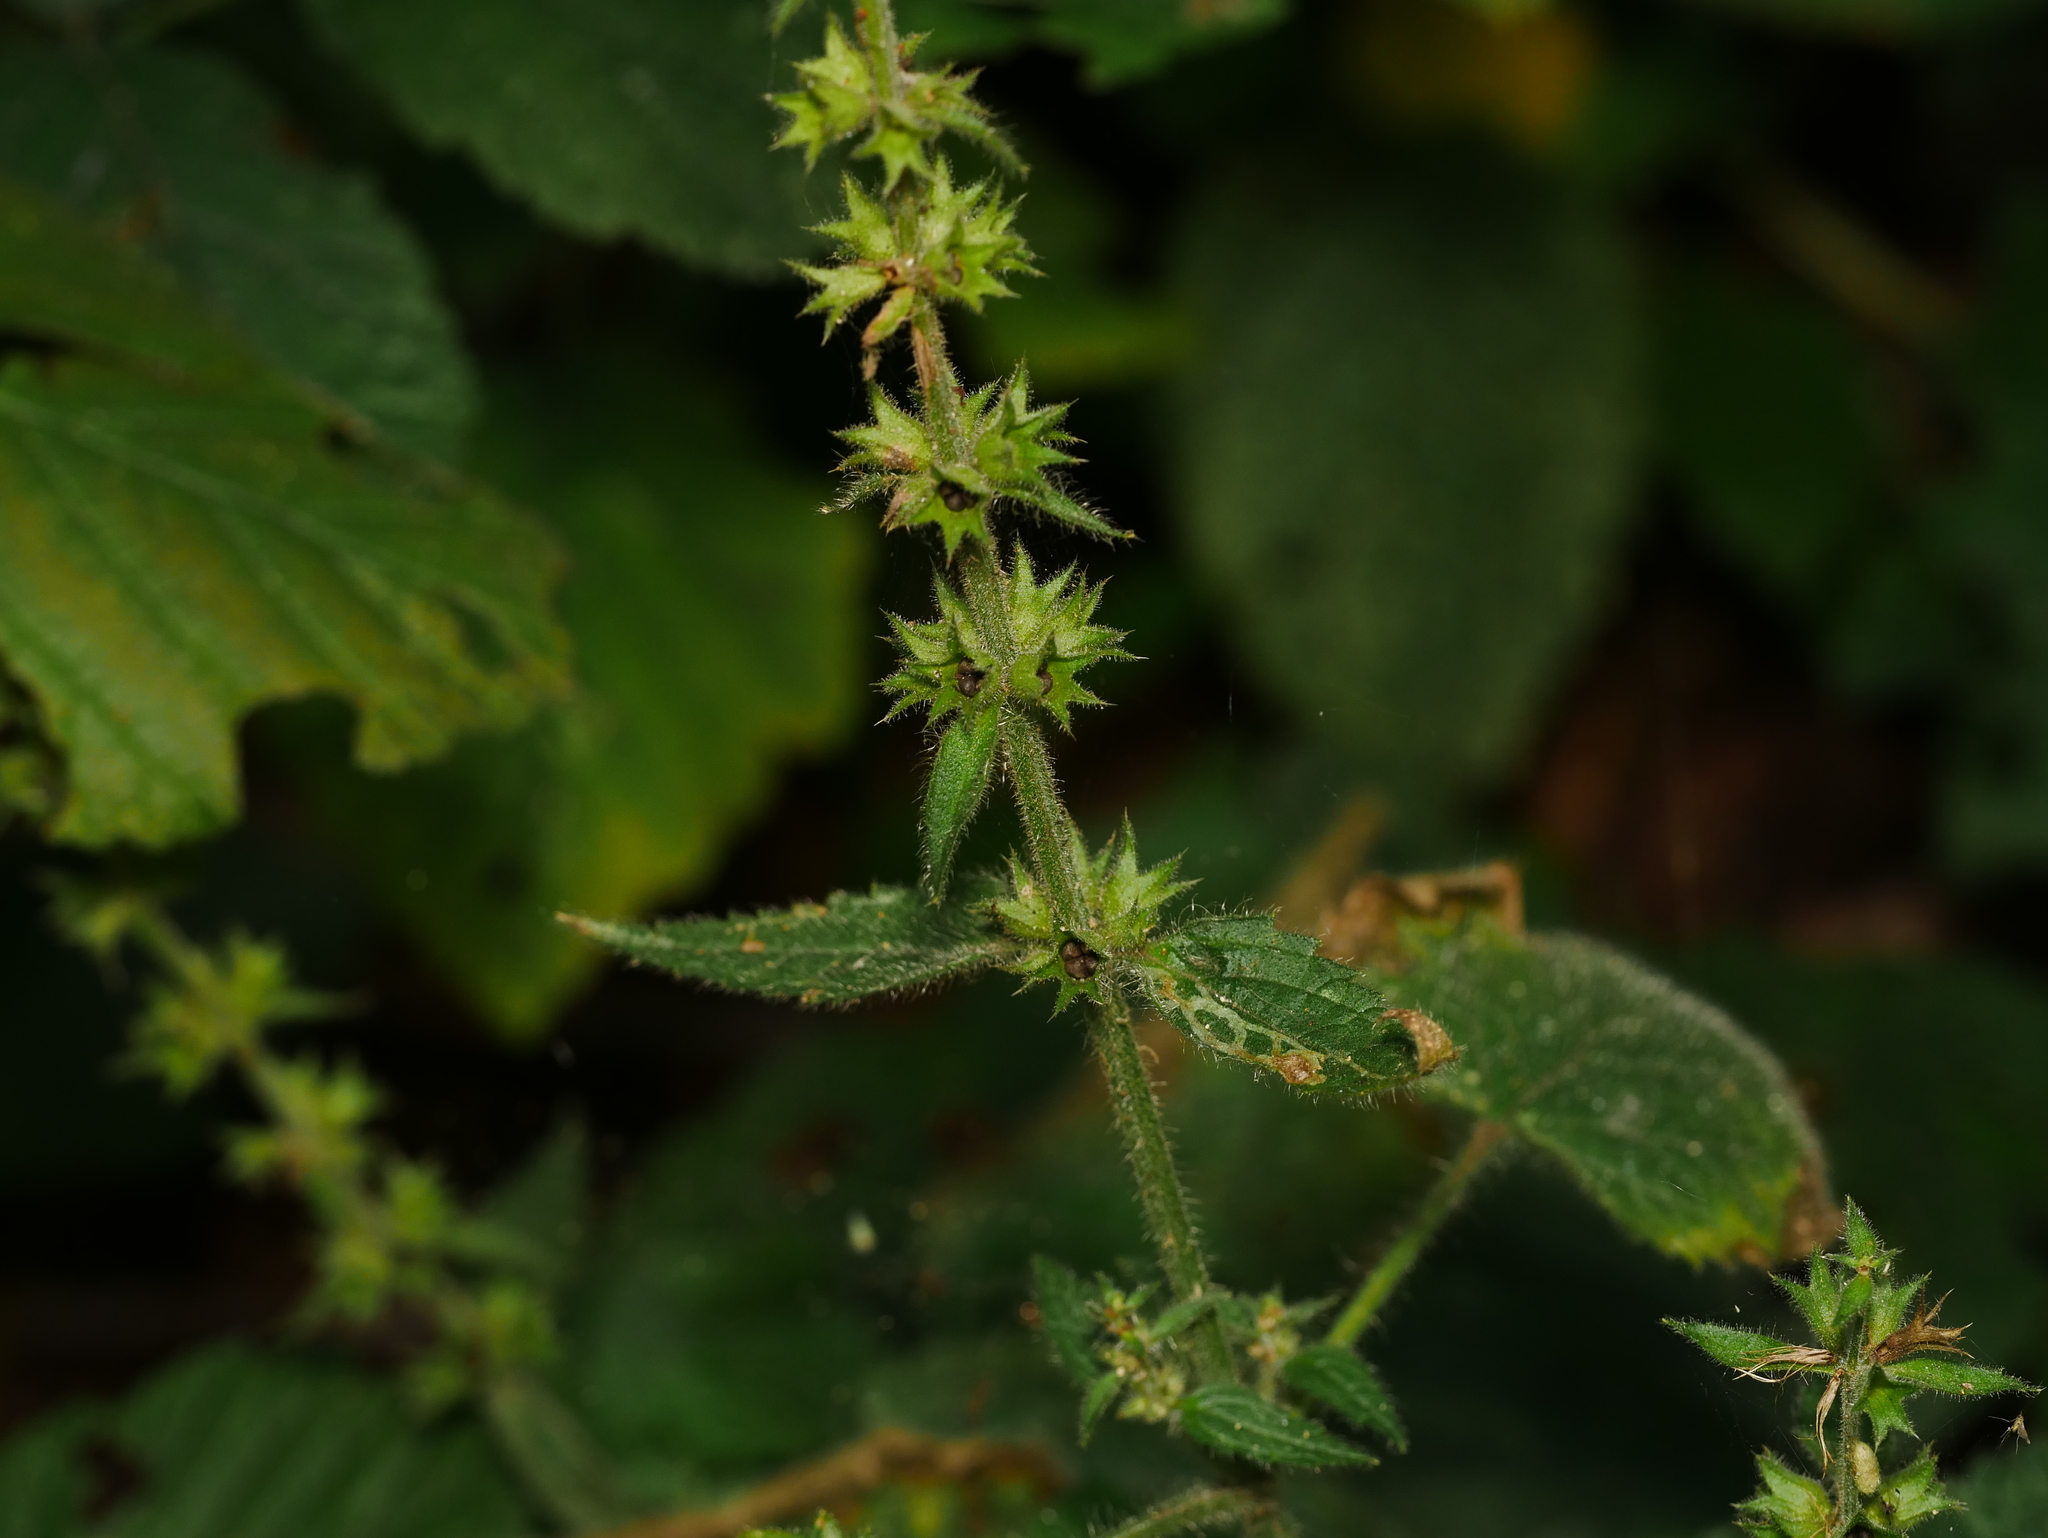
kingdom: Plantae
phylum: Tracheophyta
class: Magnoliopsida
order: Lamiales
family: Lamiaceae
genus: Stachys
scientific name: Stachys sylvatica
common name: Hedge woundwort
